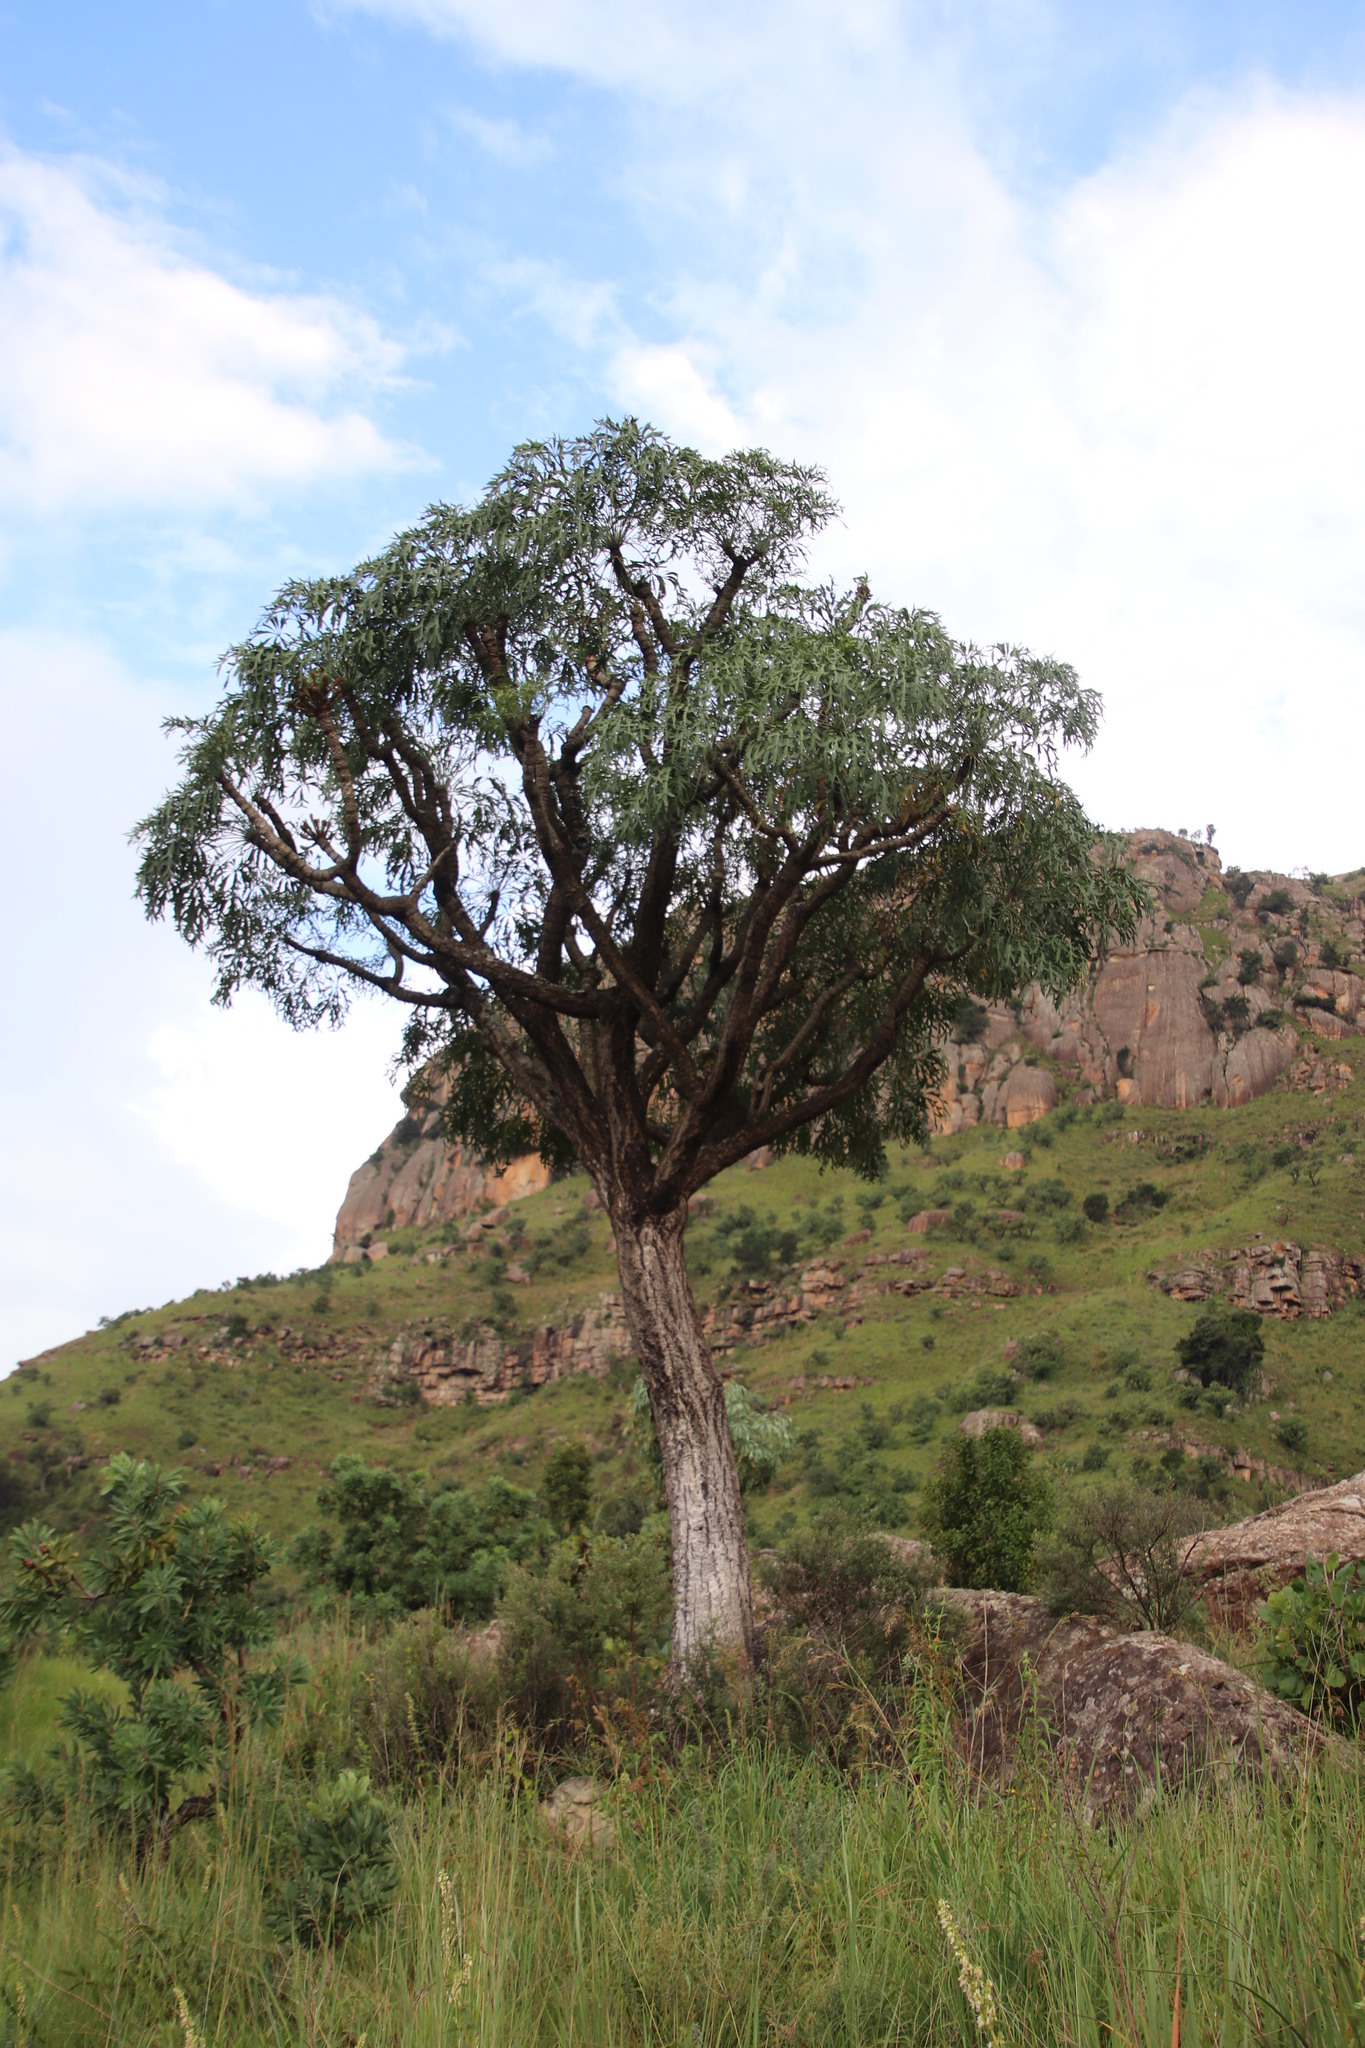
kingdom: Plantae
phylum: Tracheophyta
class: Magnoliopsida
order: Apiales
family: Araliaceae
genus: Cussonia
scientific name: Cussonia spicata
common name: Common cabbagetree
